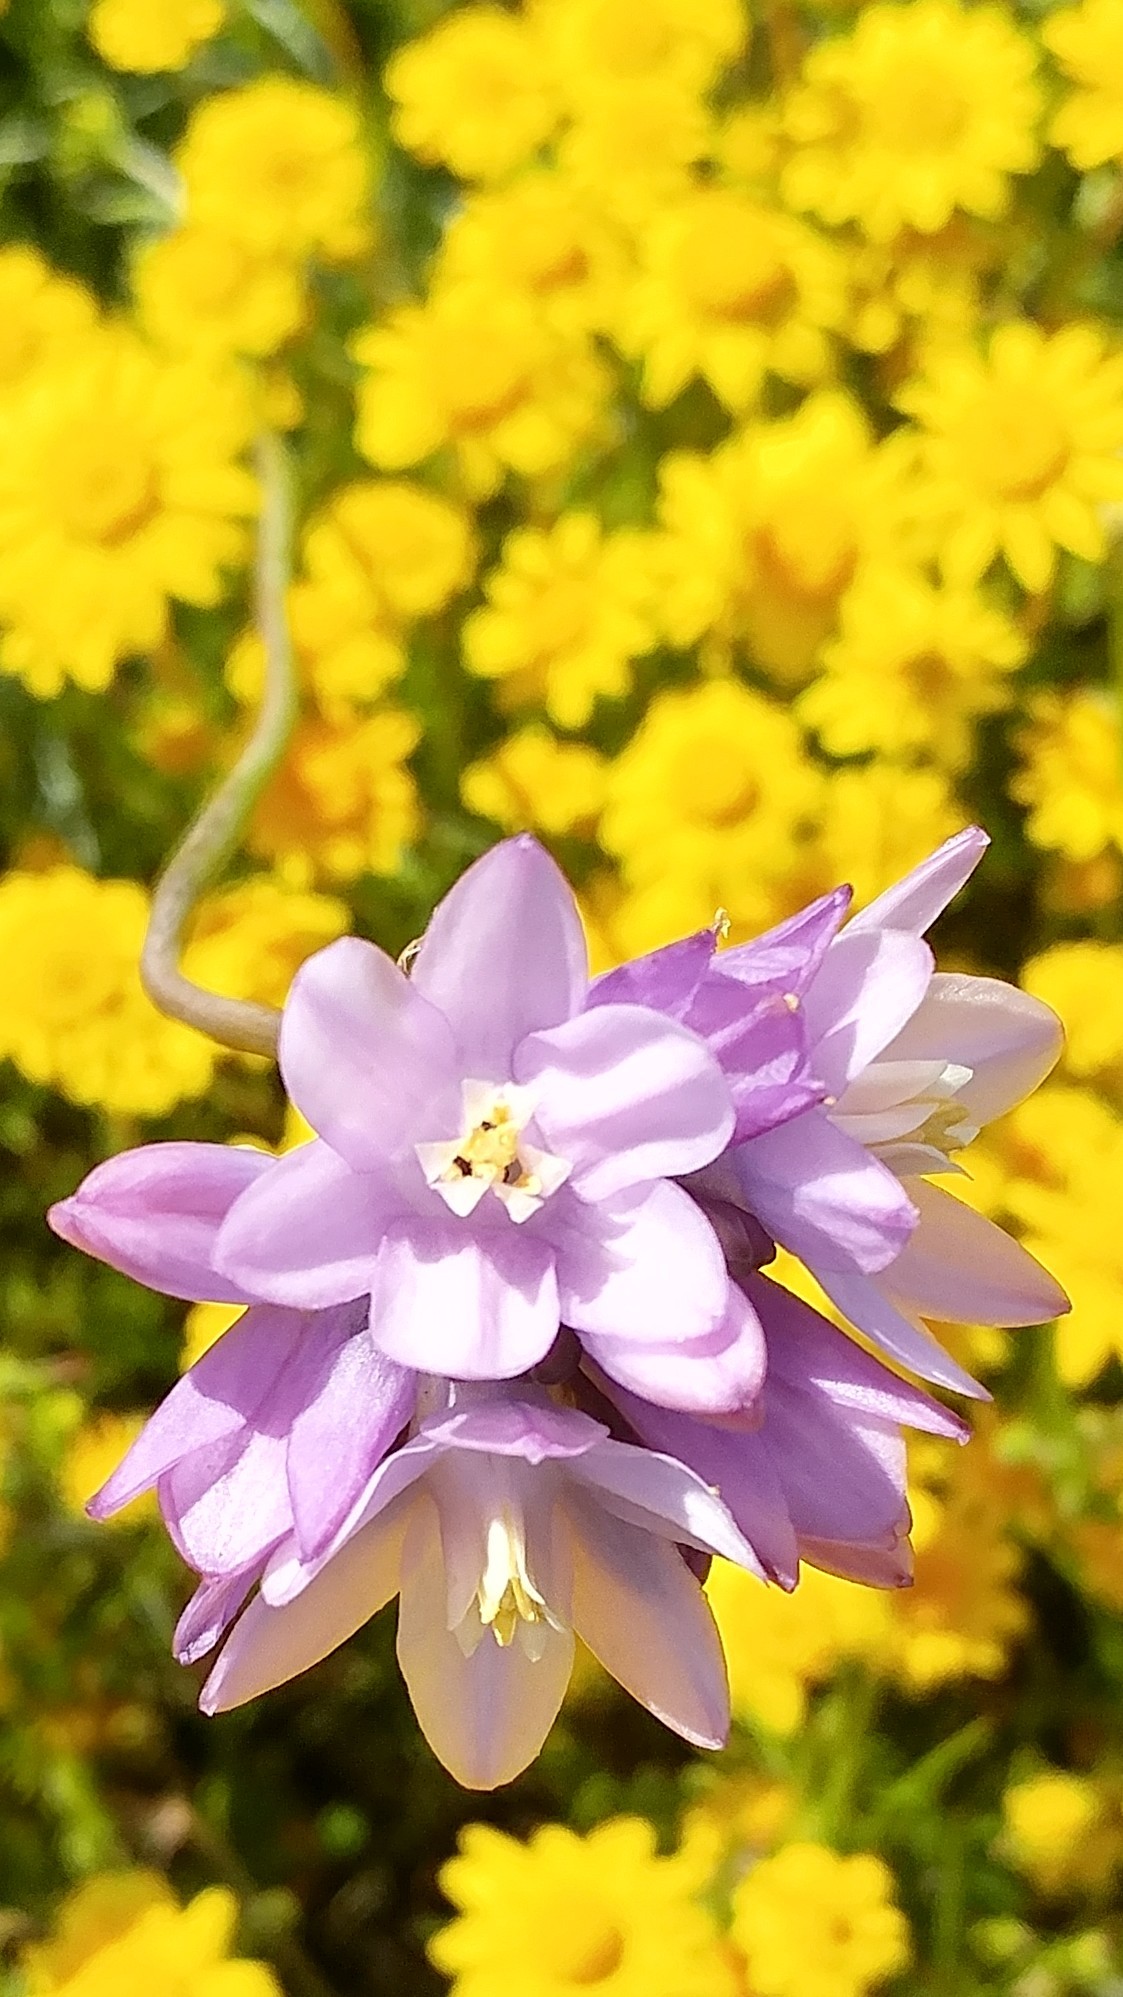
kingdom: Plantae
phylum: Tracheophyta
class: Liliopsida
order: Asparagales
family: Asparagaceae
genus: Dipterostemon
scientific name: Dipterostemon capitatus
